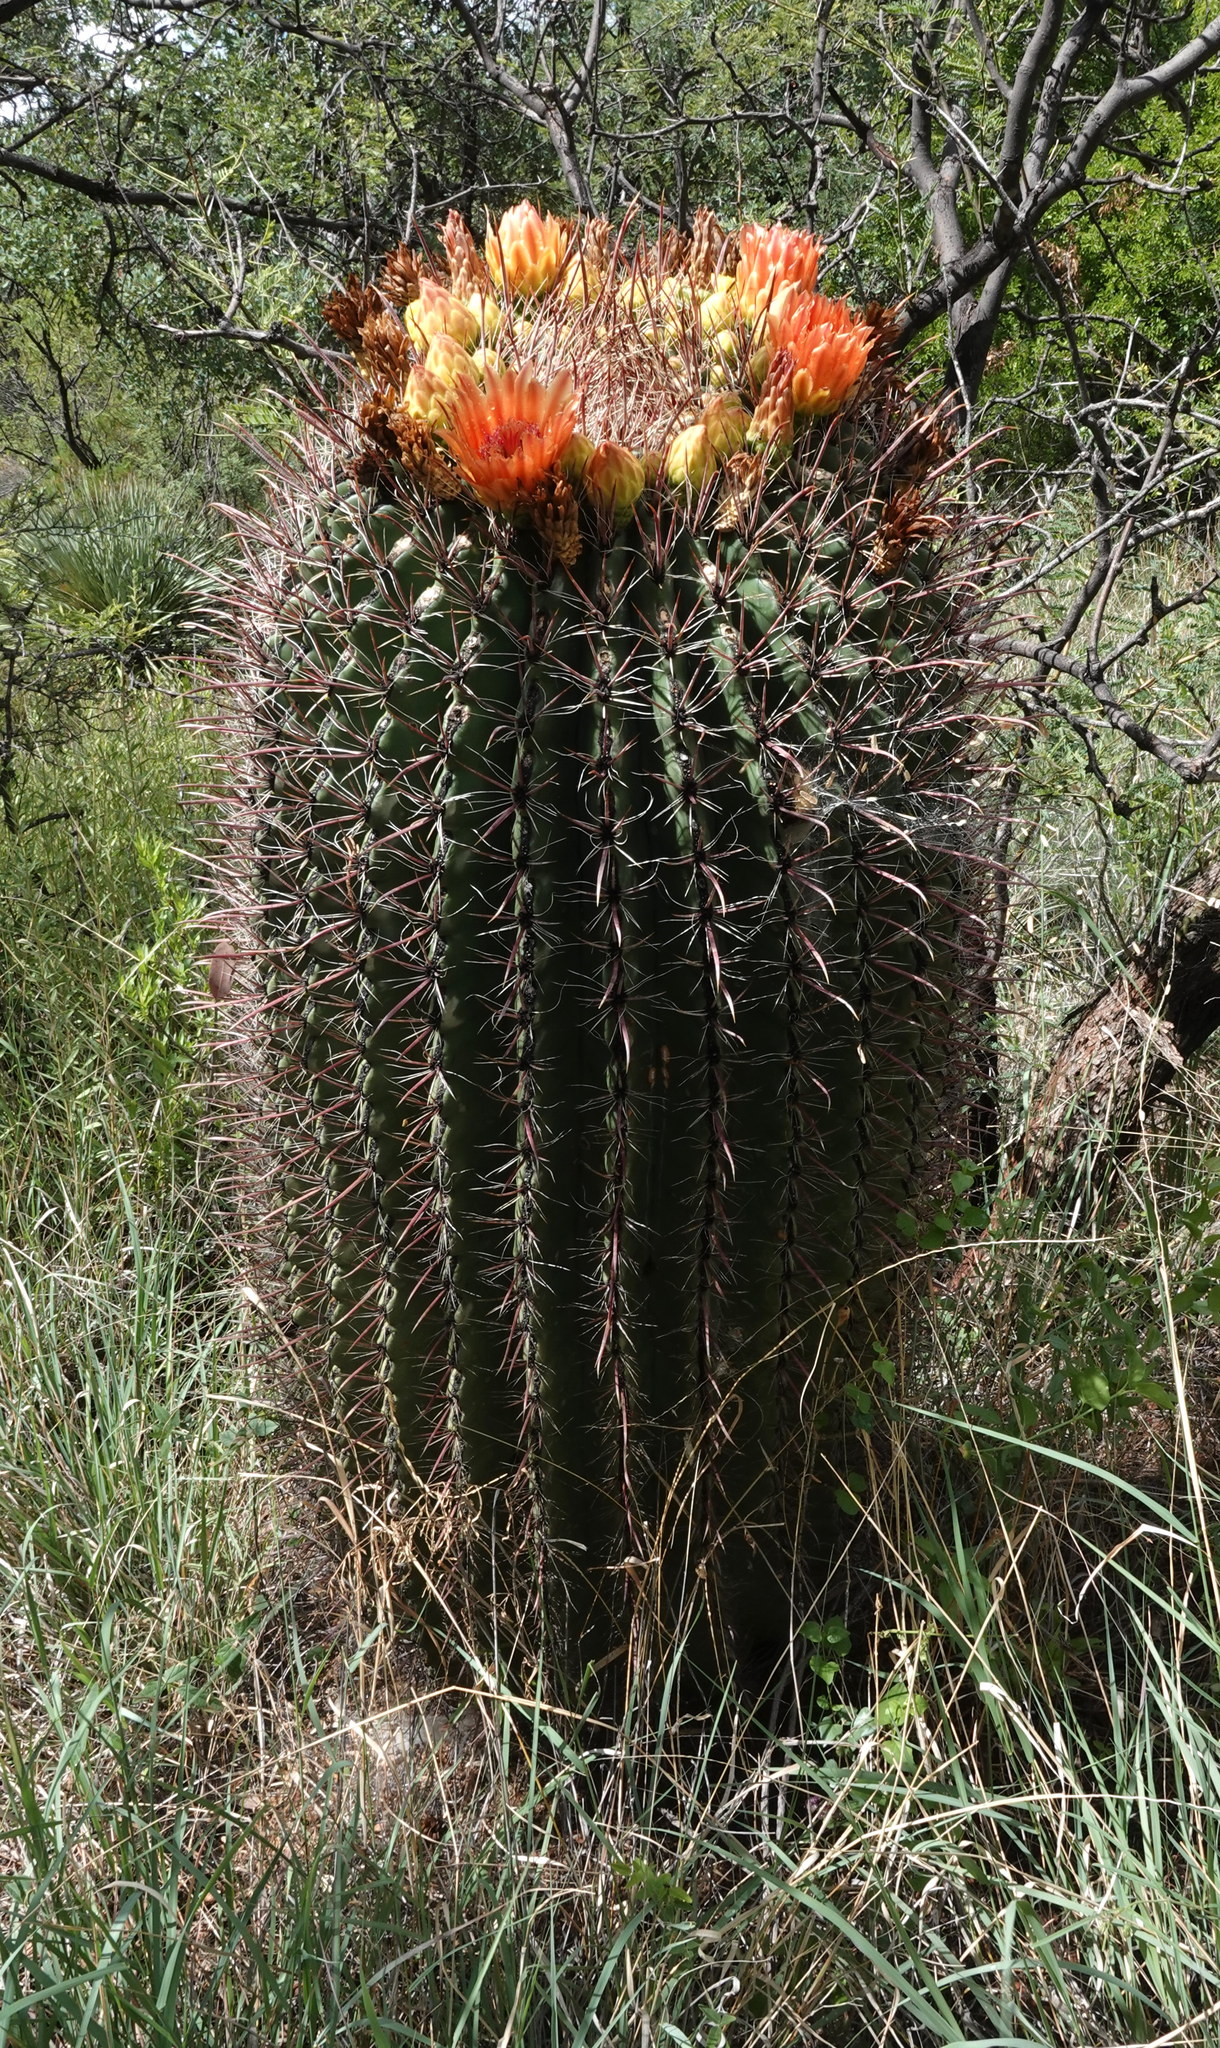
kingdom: Plantae
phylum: Tracheophyta
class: Magnoliopsida
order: Caryophyllales
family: Cactaceae
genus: Ferocactus
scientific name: Ferocactus wislizeni
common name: Candy barrel cactus
